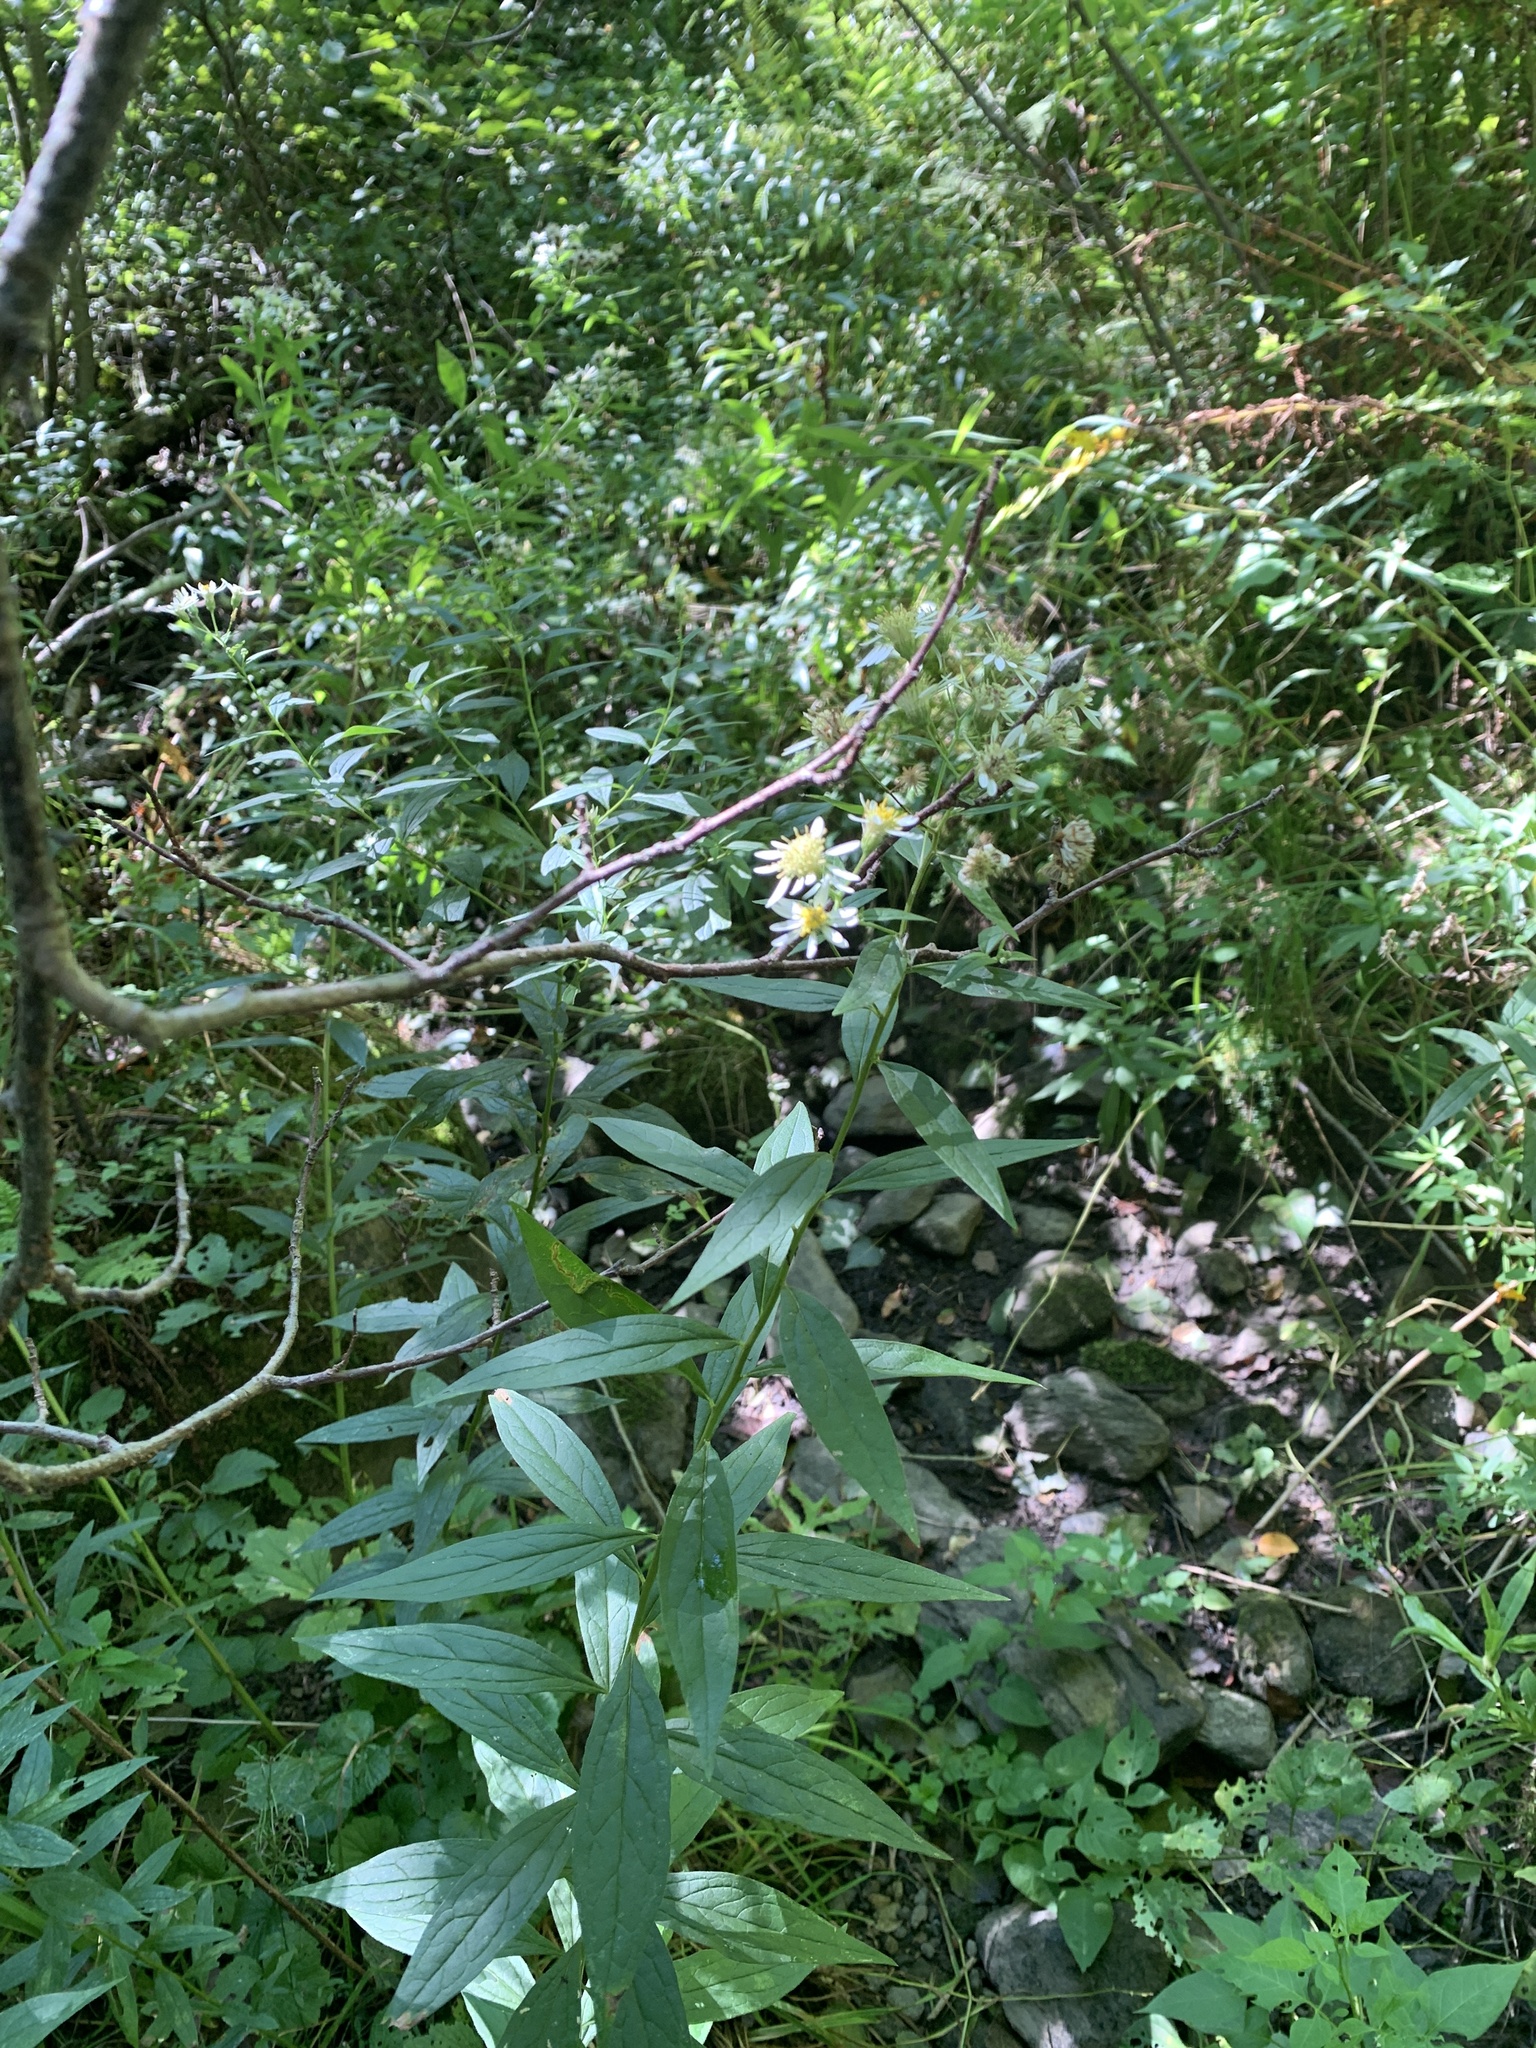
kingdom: Plantae
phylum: Tracheophyta
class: Magnoliopsida
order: Asterales
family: Asteraceae
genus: Doellingeria
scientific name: Doellingeria umbellata
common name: Flat-top white aster
